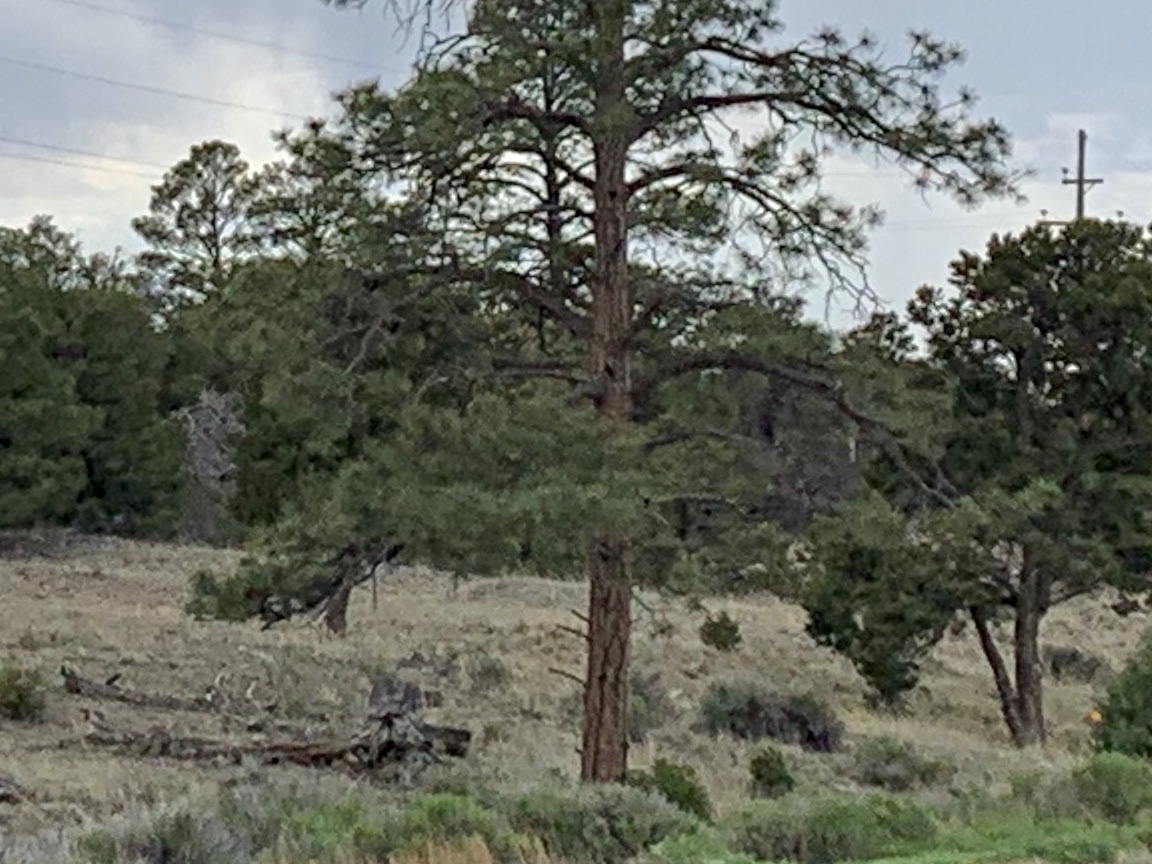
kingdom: Plantae
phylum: Tracheophyta
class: Pinopsida
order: Pinales
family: Pinaceae
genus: Pinus
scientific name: Pinus ponderosa
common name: Western yellow-pine
